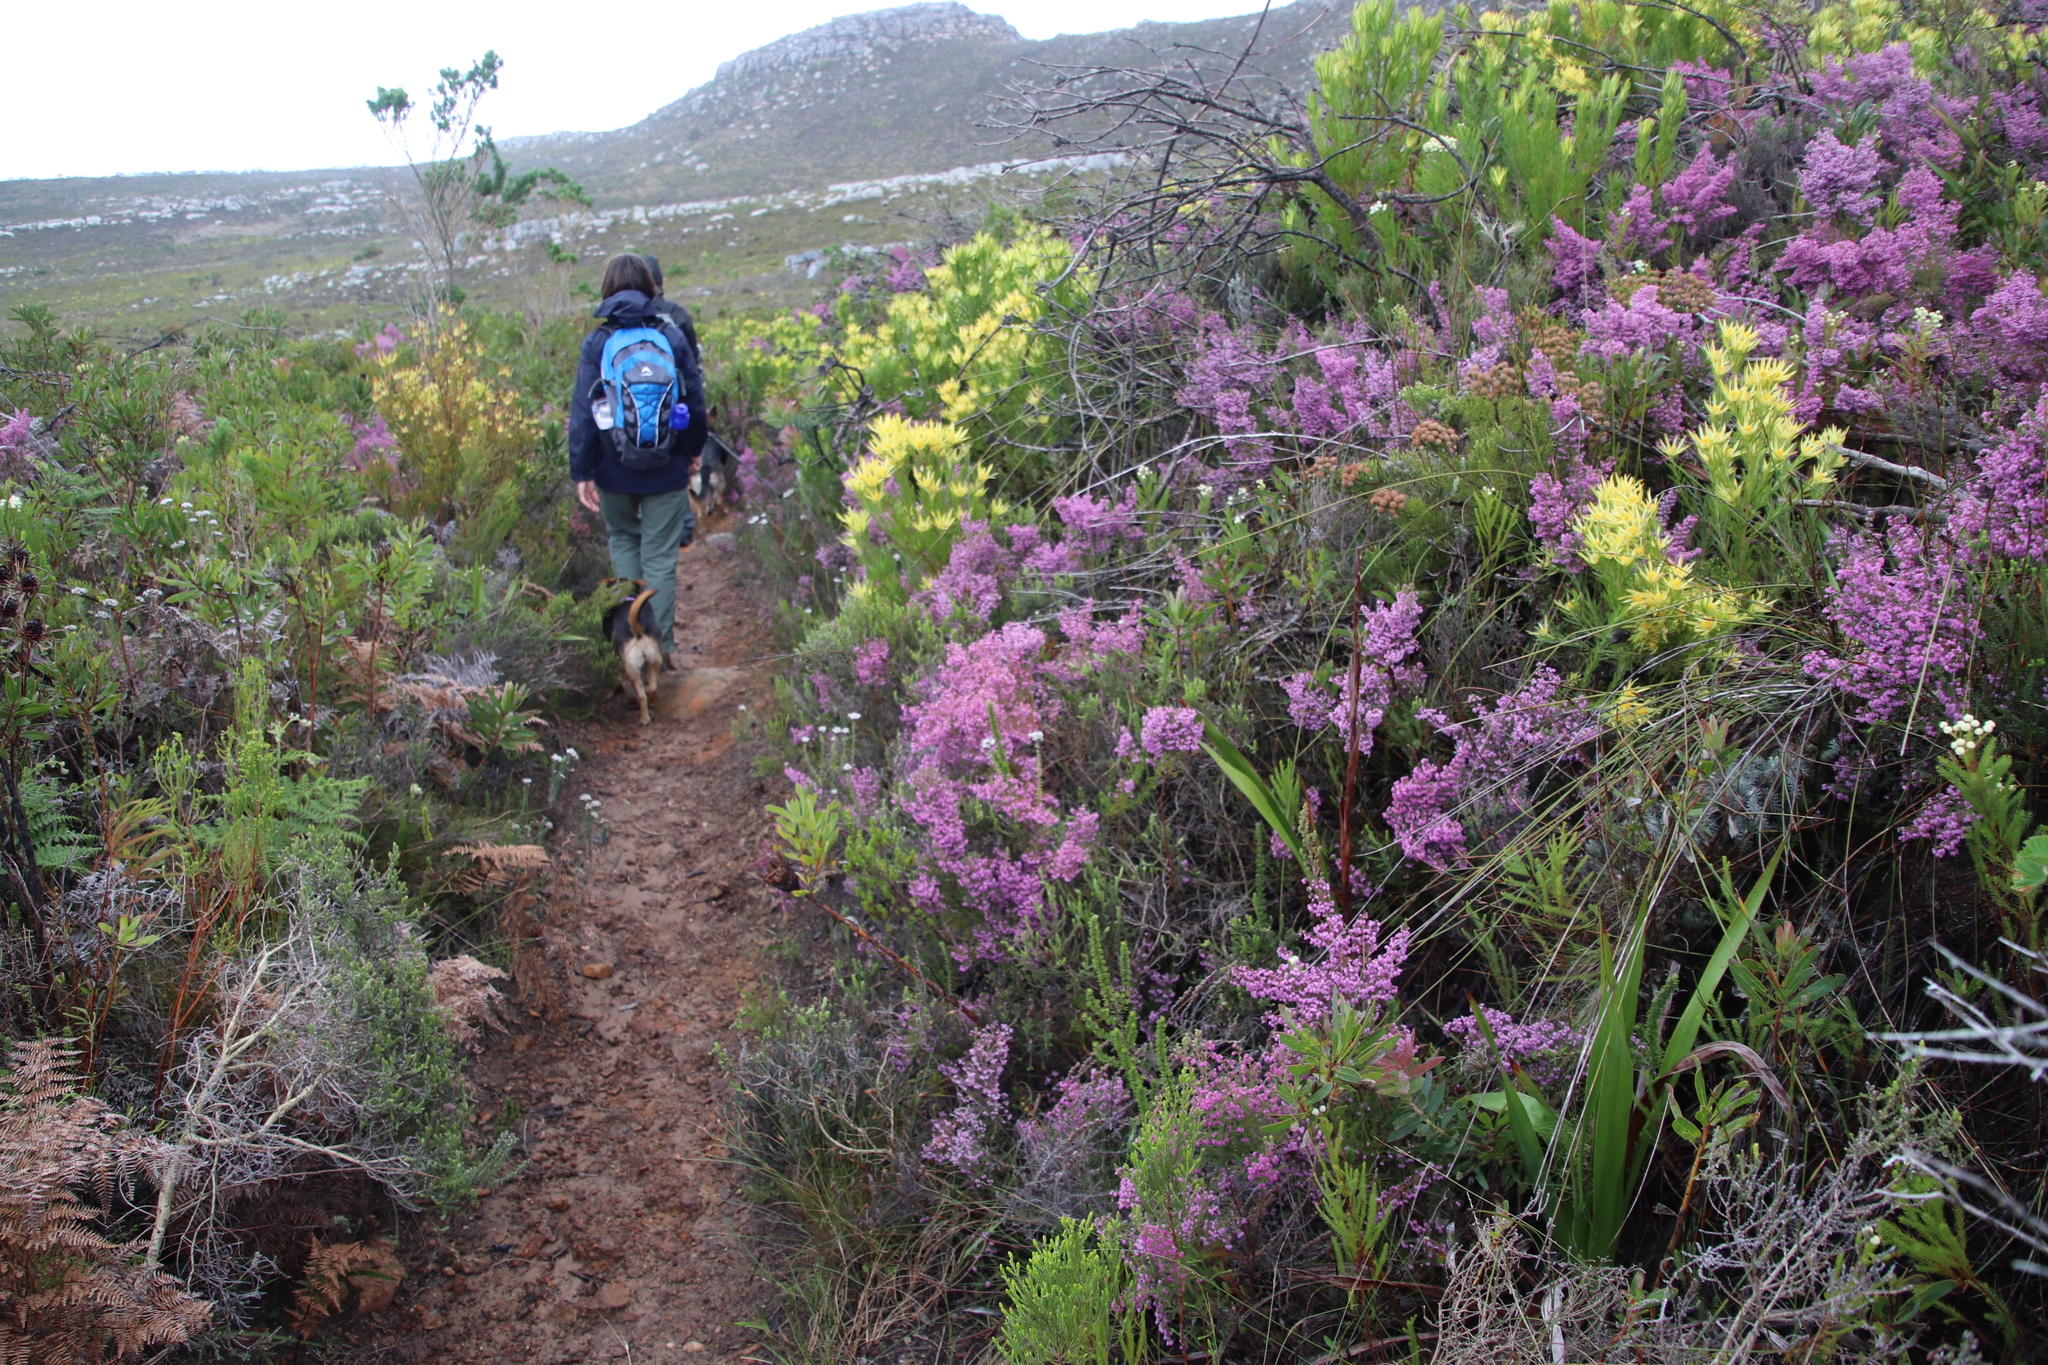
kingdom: Plantae
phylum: Tracheophyta
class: Magnoliopsida
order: Ericales
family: Ericaceae
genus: Erica
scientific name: Erica hirtiflora
